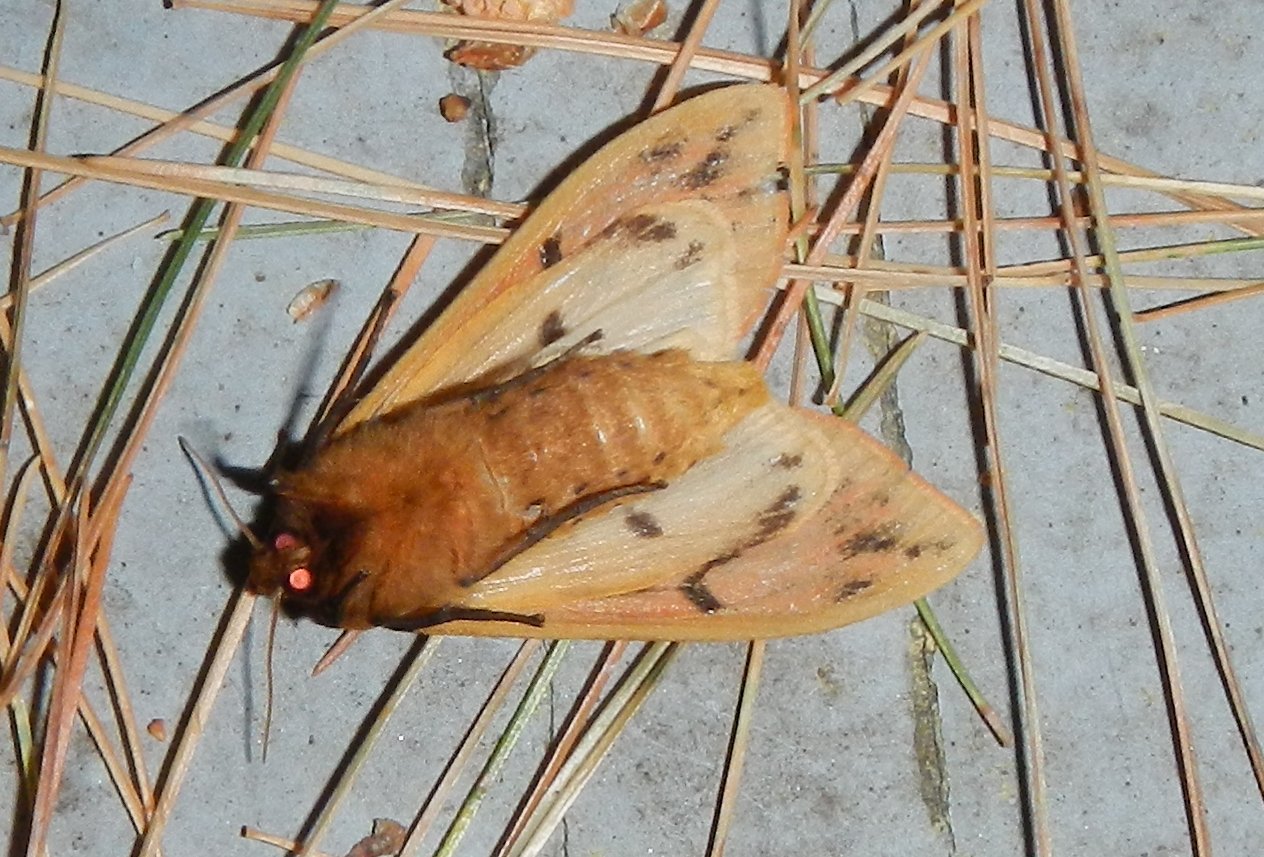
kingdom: Animalia
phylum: Arthropoda
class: Insecta
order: Lepidoptera
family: Erebidae
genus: Pyrrharctia
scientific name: Pyrrharctia isabella
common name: Isabella tiger moth
